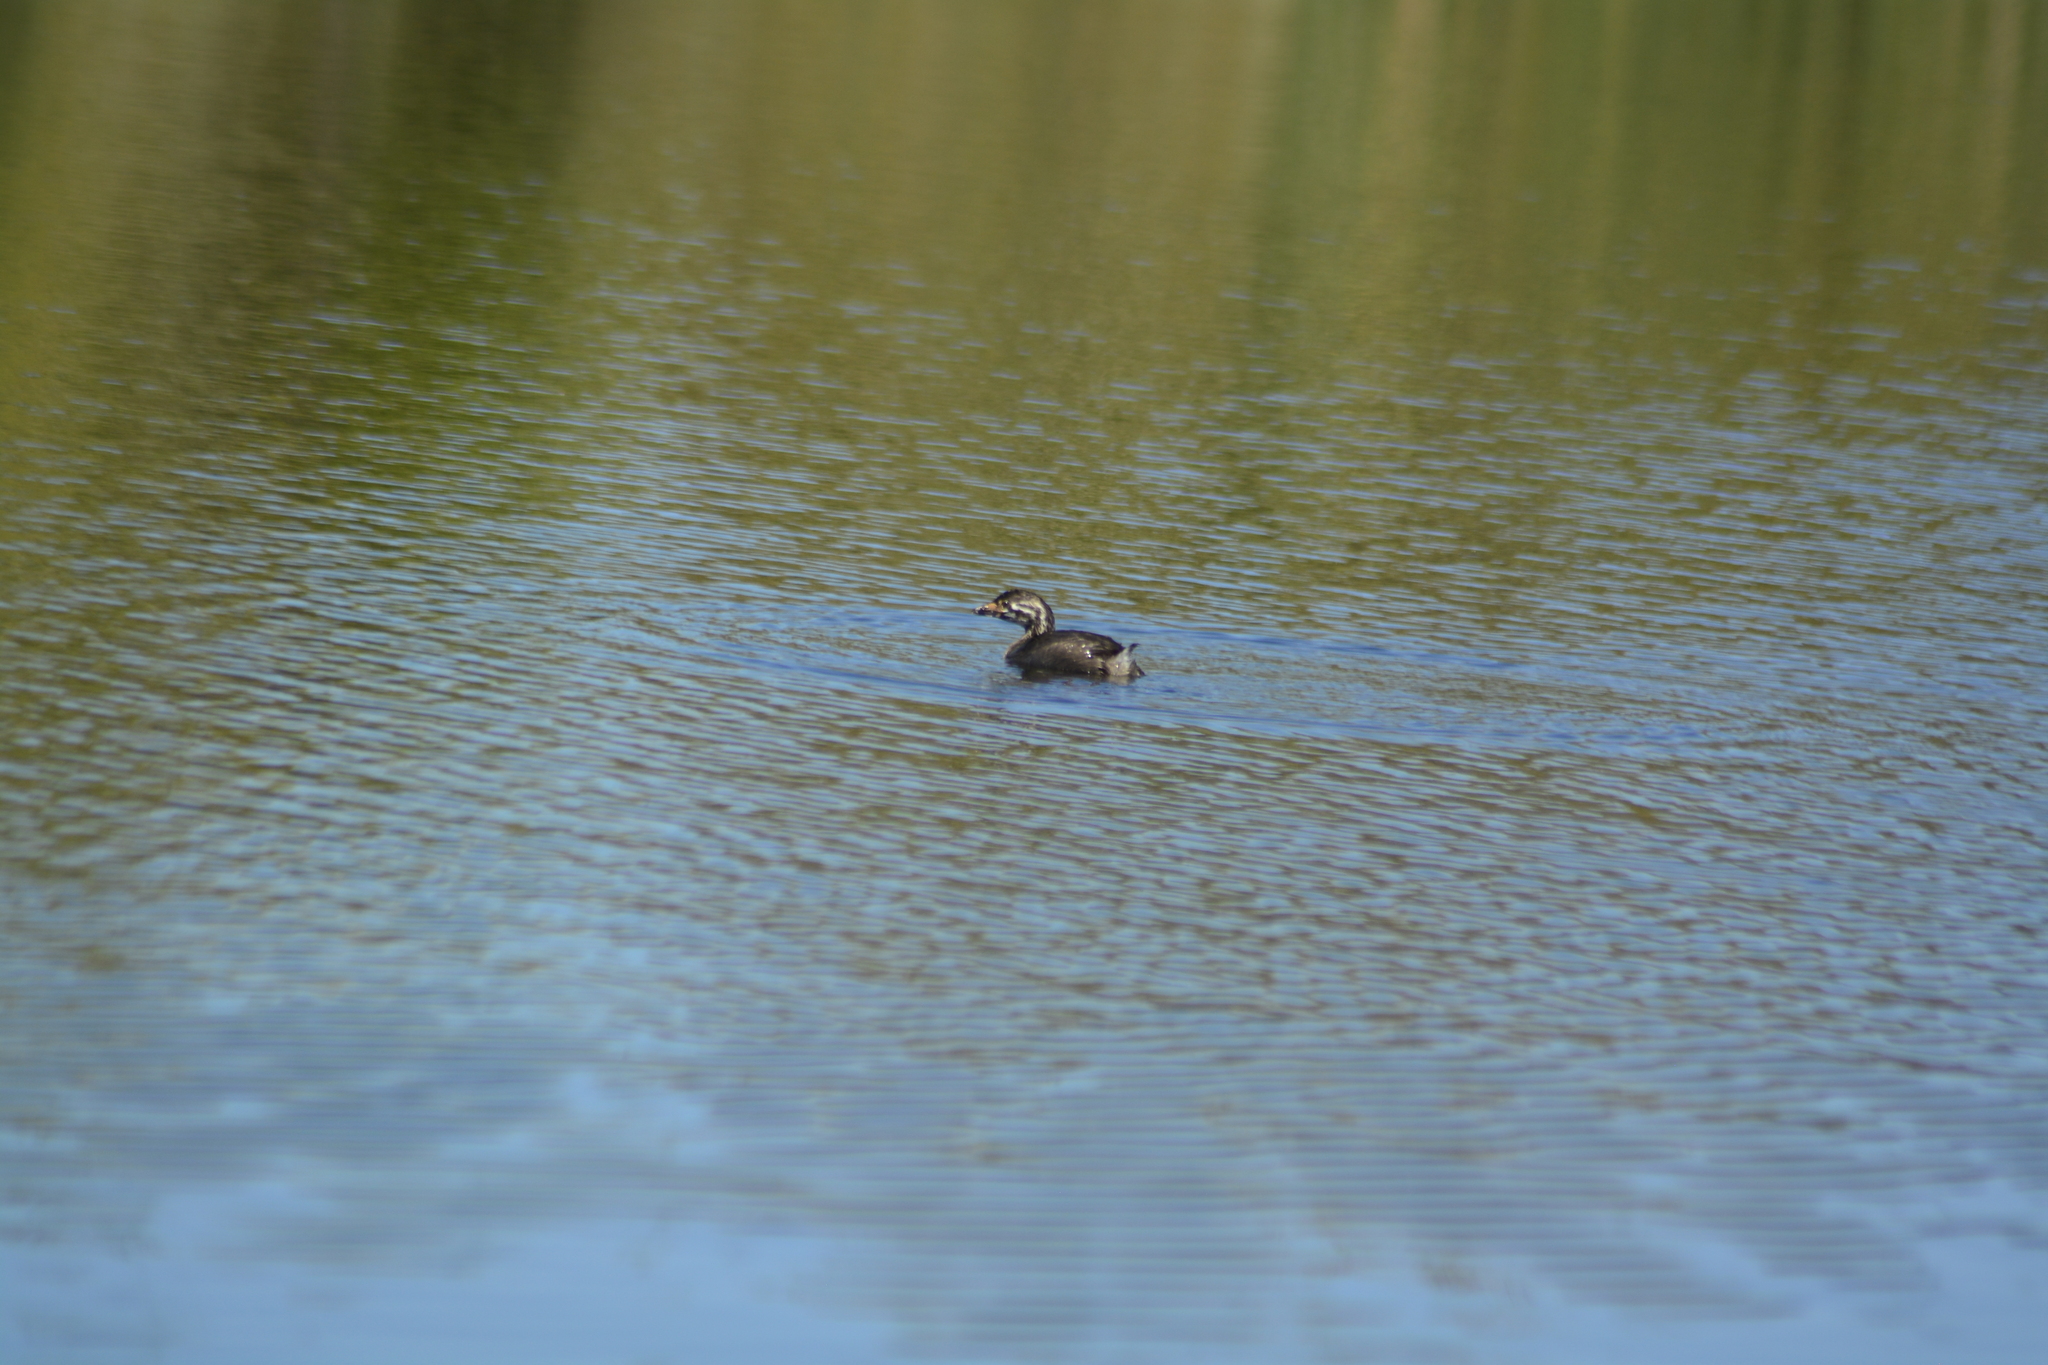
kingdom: Animalia
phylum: Chordata
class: Aves
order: Podicipediformes
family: Podicipedidae
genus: Podilymbus
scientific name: Podilymbus podiceps
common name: Pied-billed grebe
